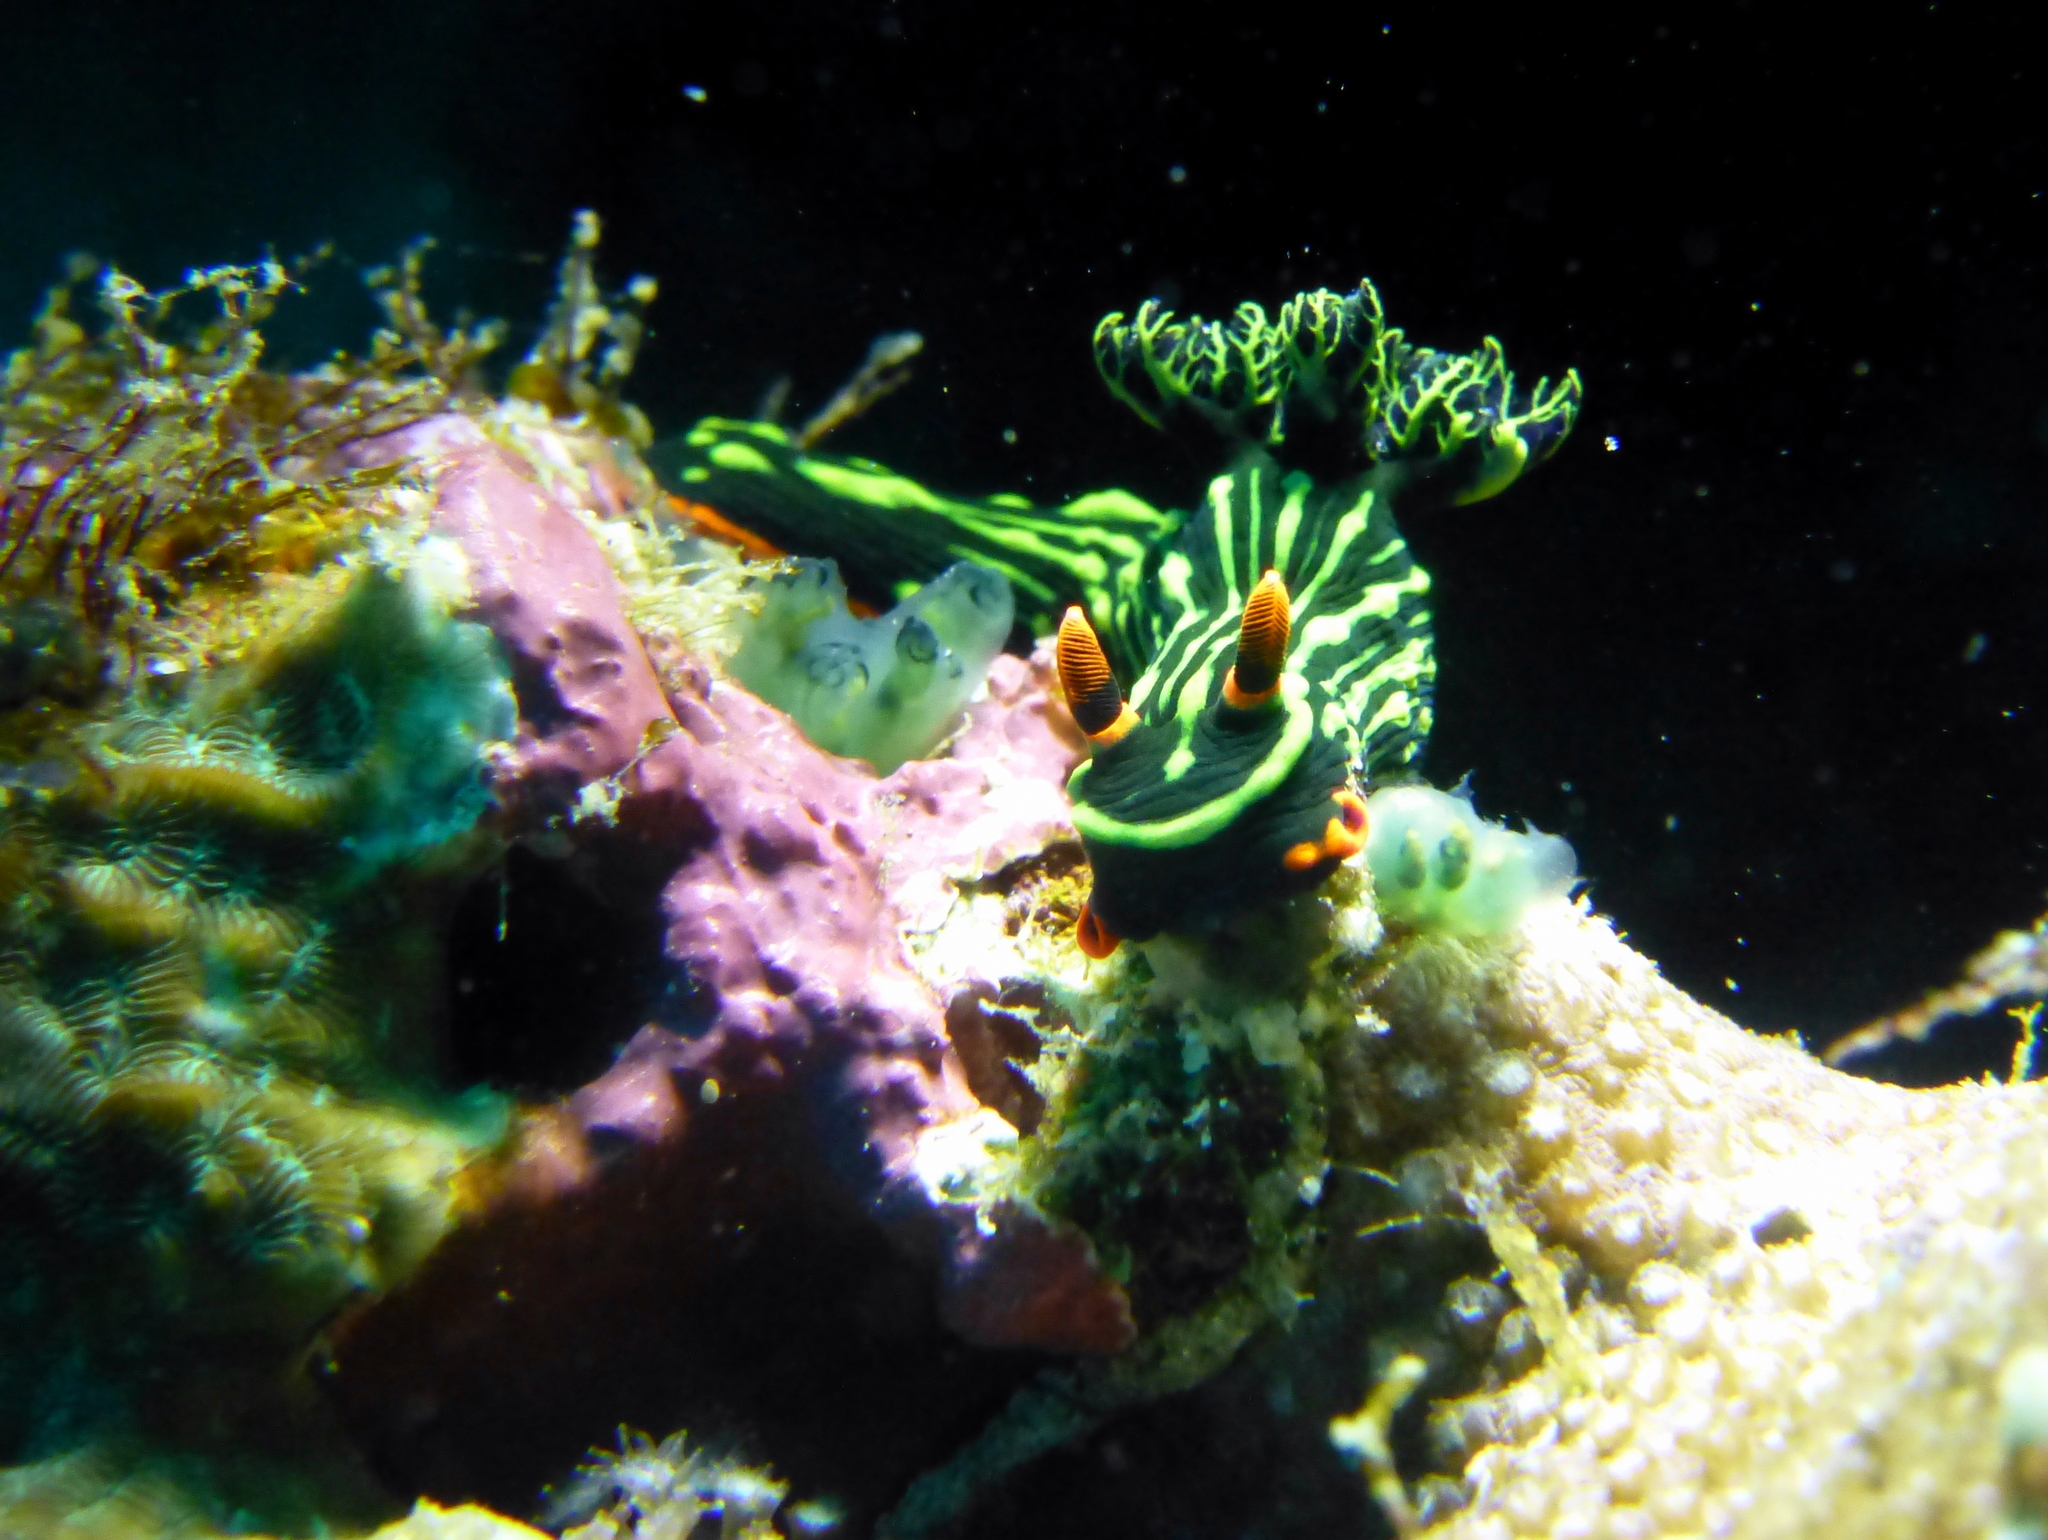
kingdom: Animalia
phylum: Mollusca
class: Gastropoda
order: Nudibranchia
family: Polyceridae
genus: Nembrotha
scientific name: Nembrotha kubaryana
